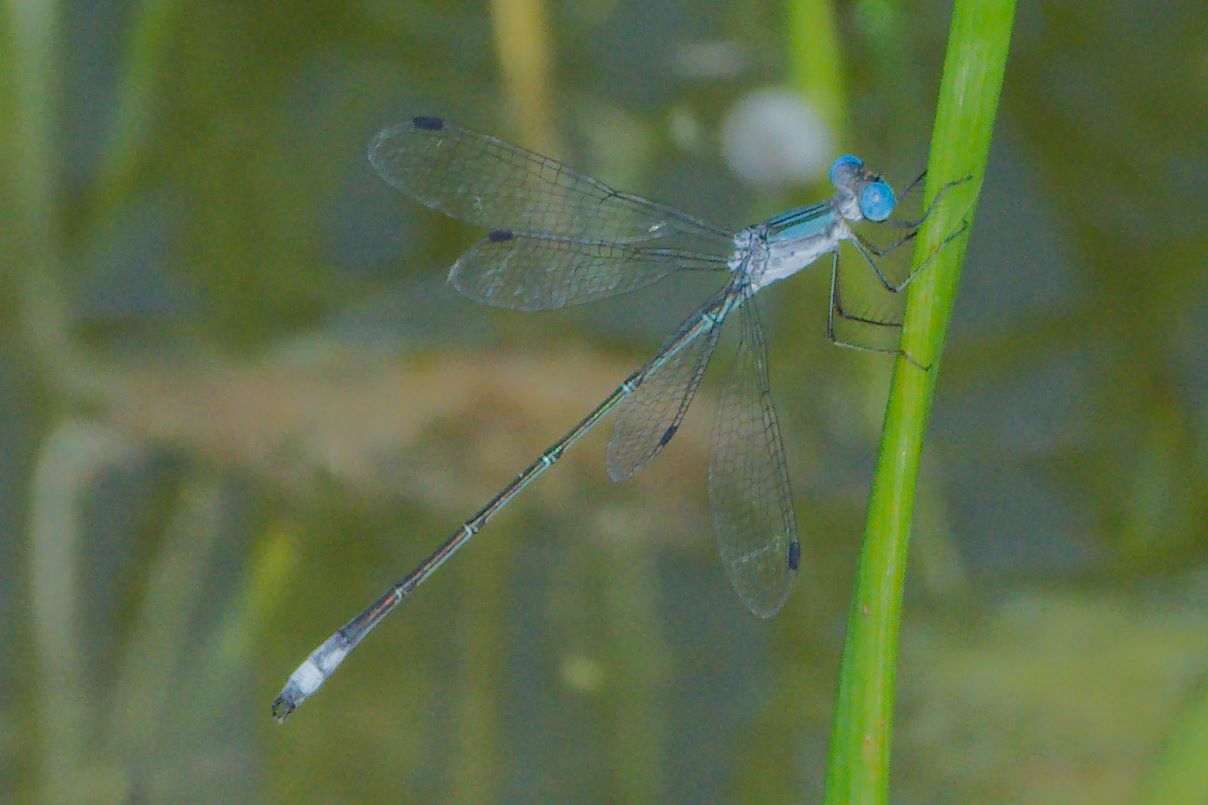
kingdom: Animalia
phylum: Arthropoda
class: Insecta
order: Odonata
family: Lestidae
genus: Lestes
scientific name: Lestes forficula
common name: Rainpool spreadwing
